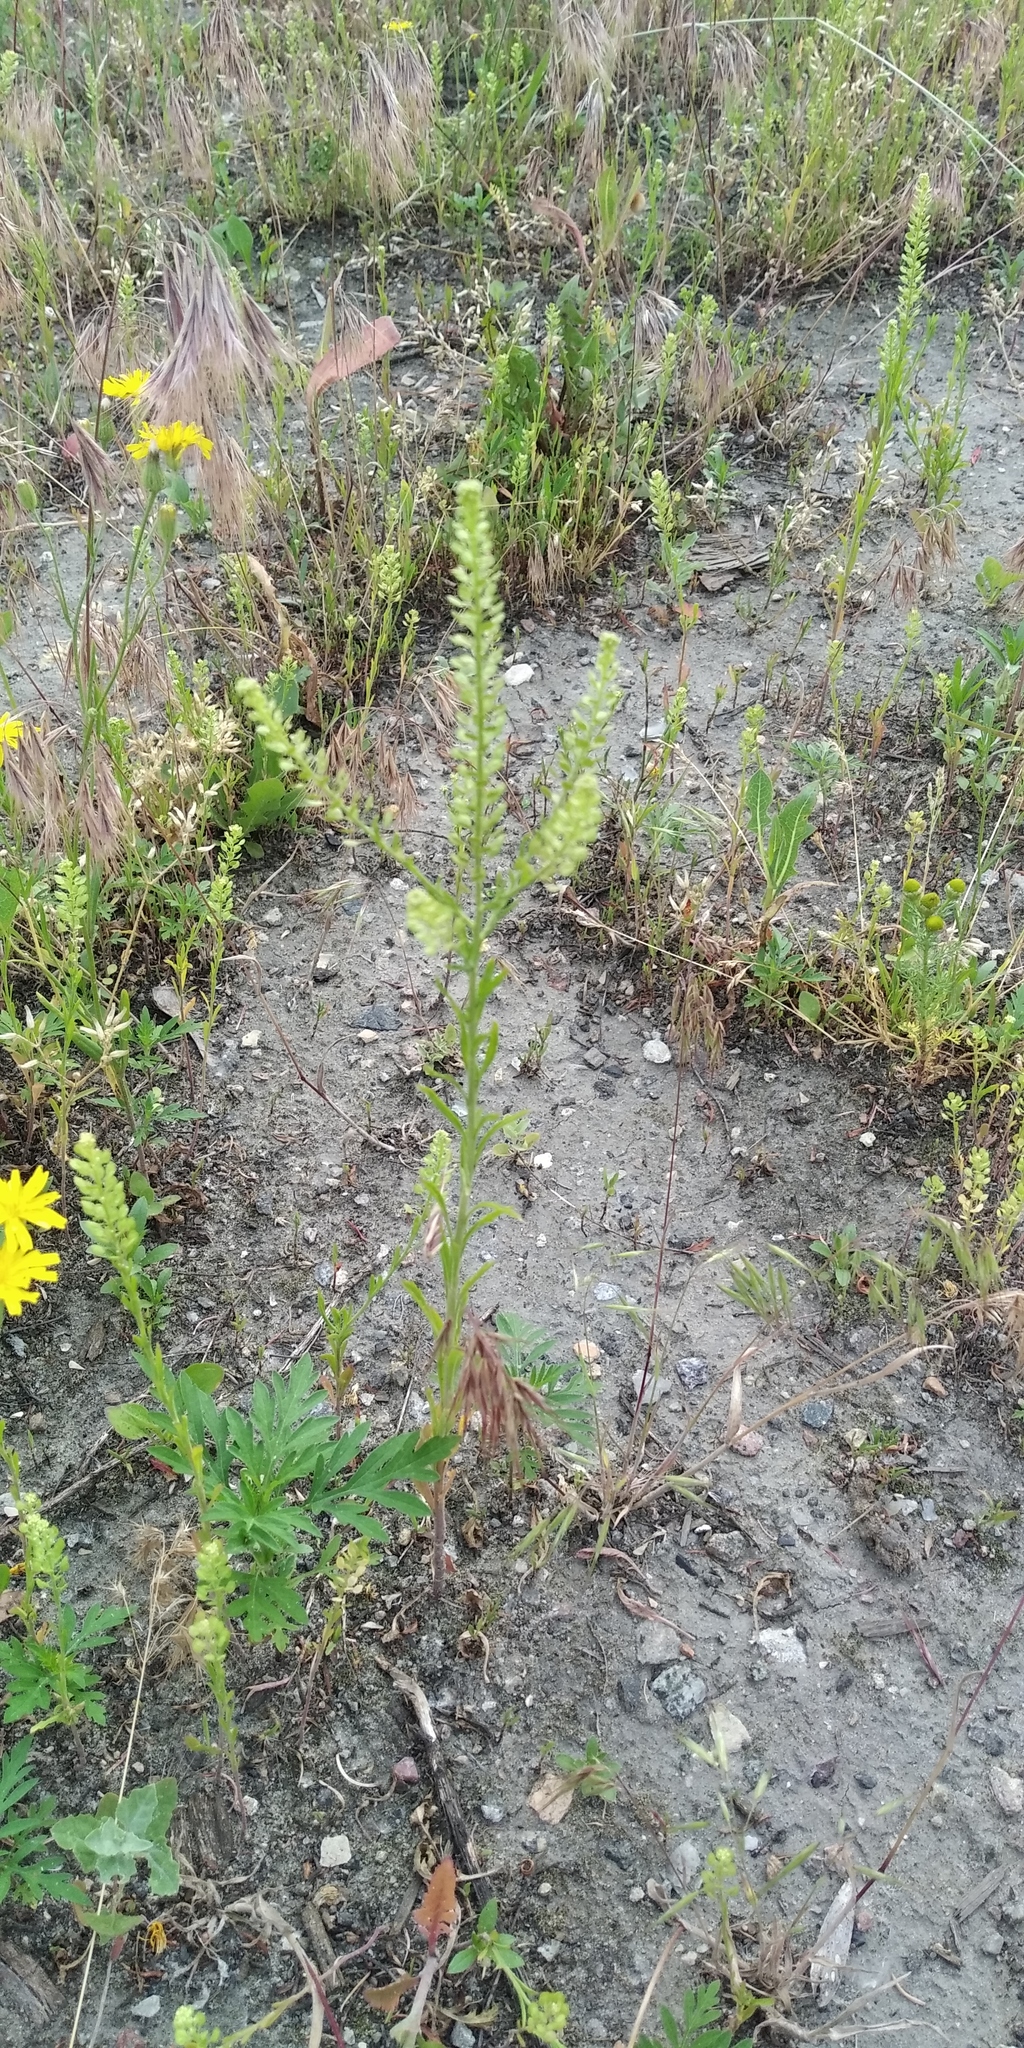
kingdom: Plantae
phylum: Tracheophyta
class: Magnoliopsida
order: Asterales
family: Asteraceae
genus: Tragopogon
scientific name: Tragopogon dubius
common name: Yellow salsify
